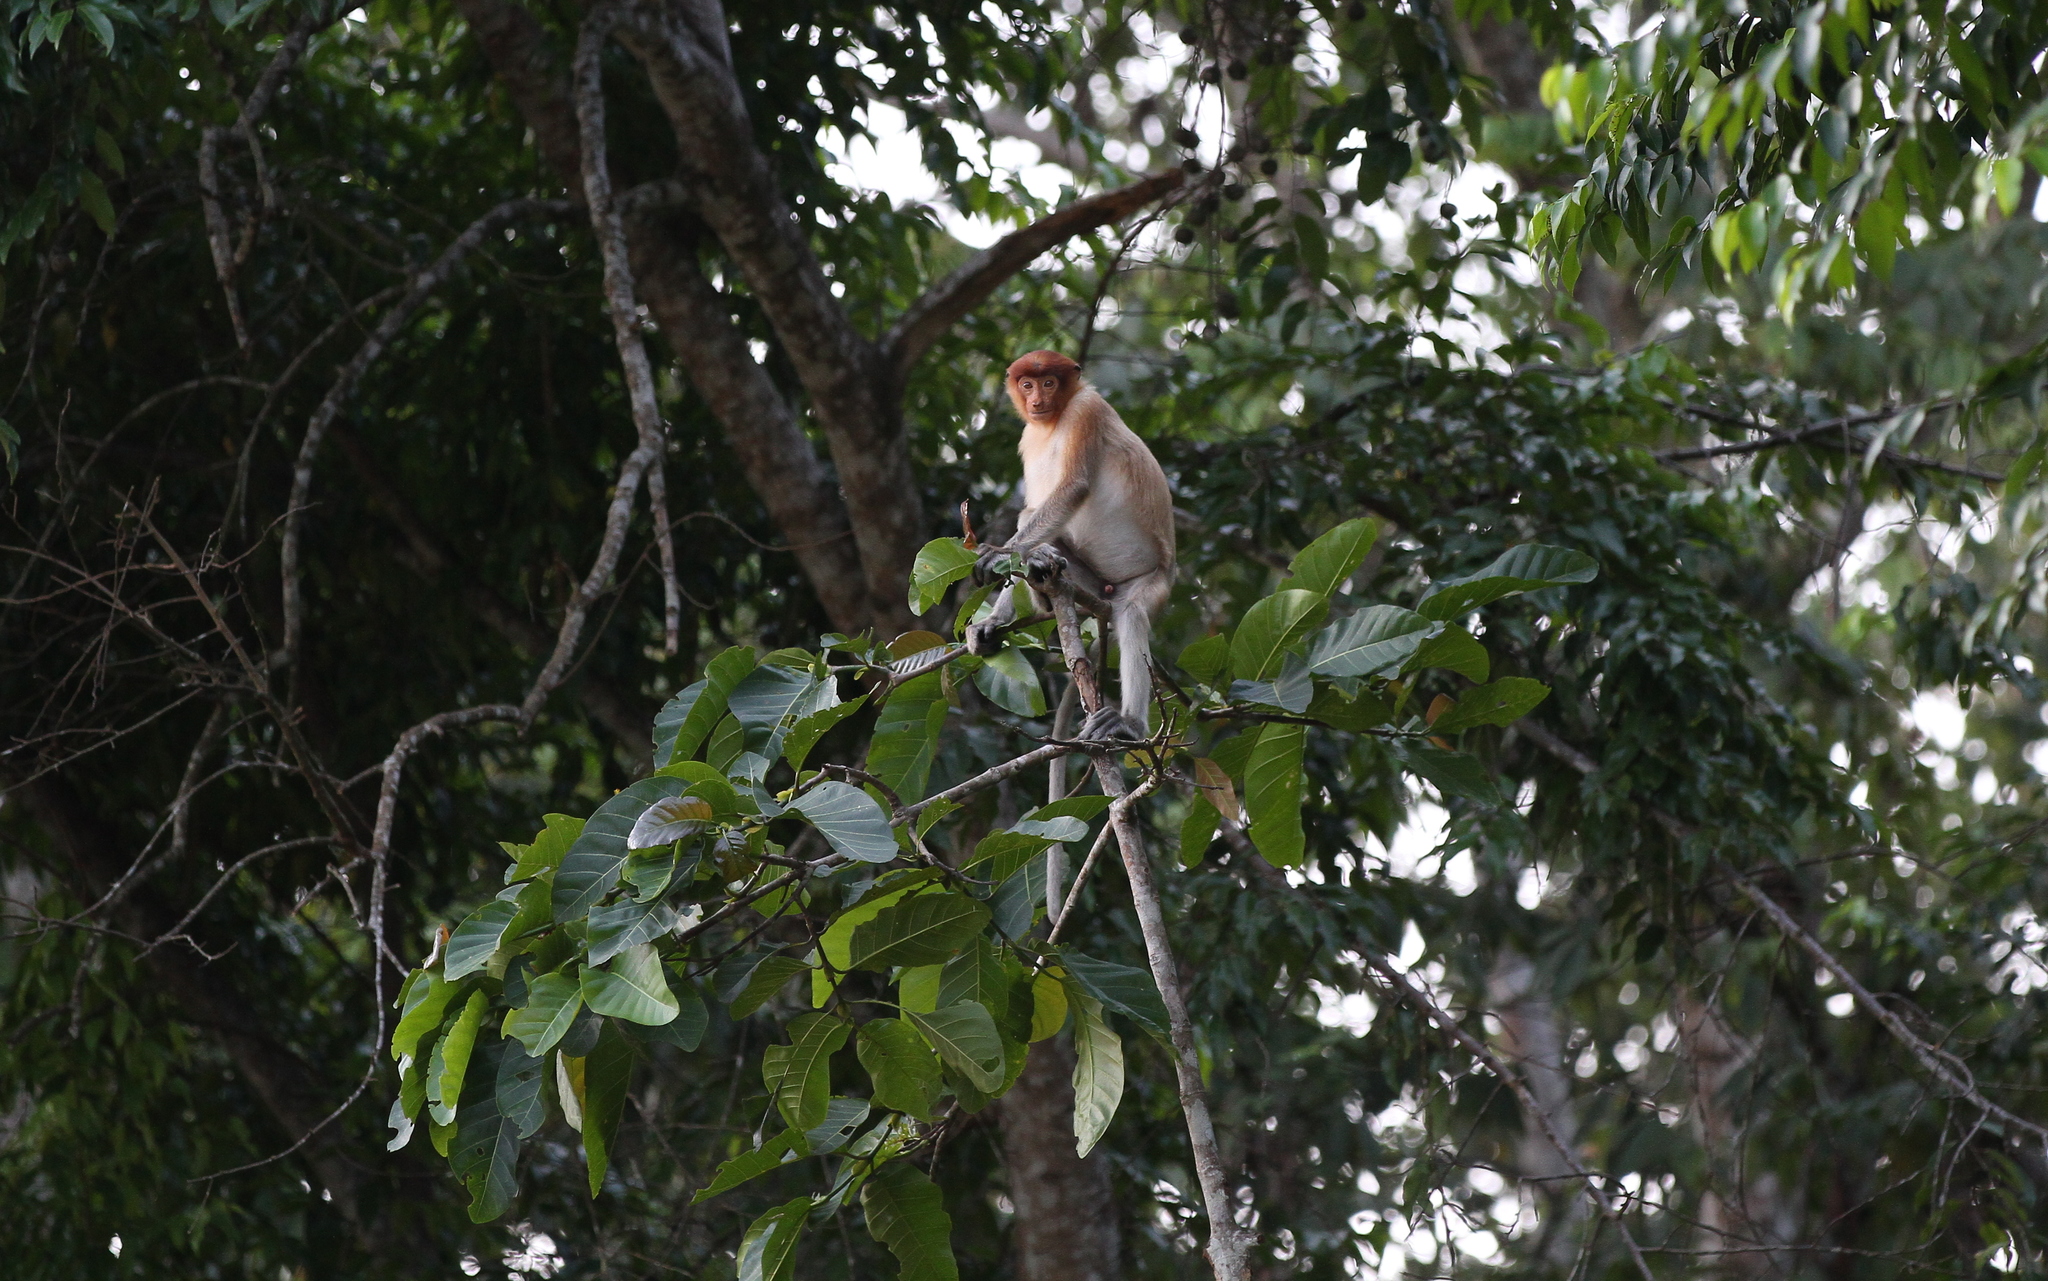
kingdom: Animalia
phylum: Chordata
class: Mammalia
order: Primates
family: Cercopithecidae
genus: Nasalis
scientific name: Nasalis larvatus
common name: Proboscis monkey
